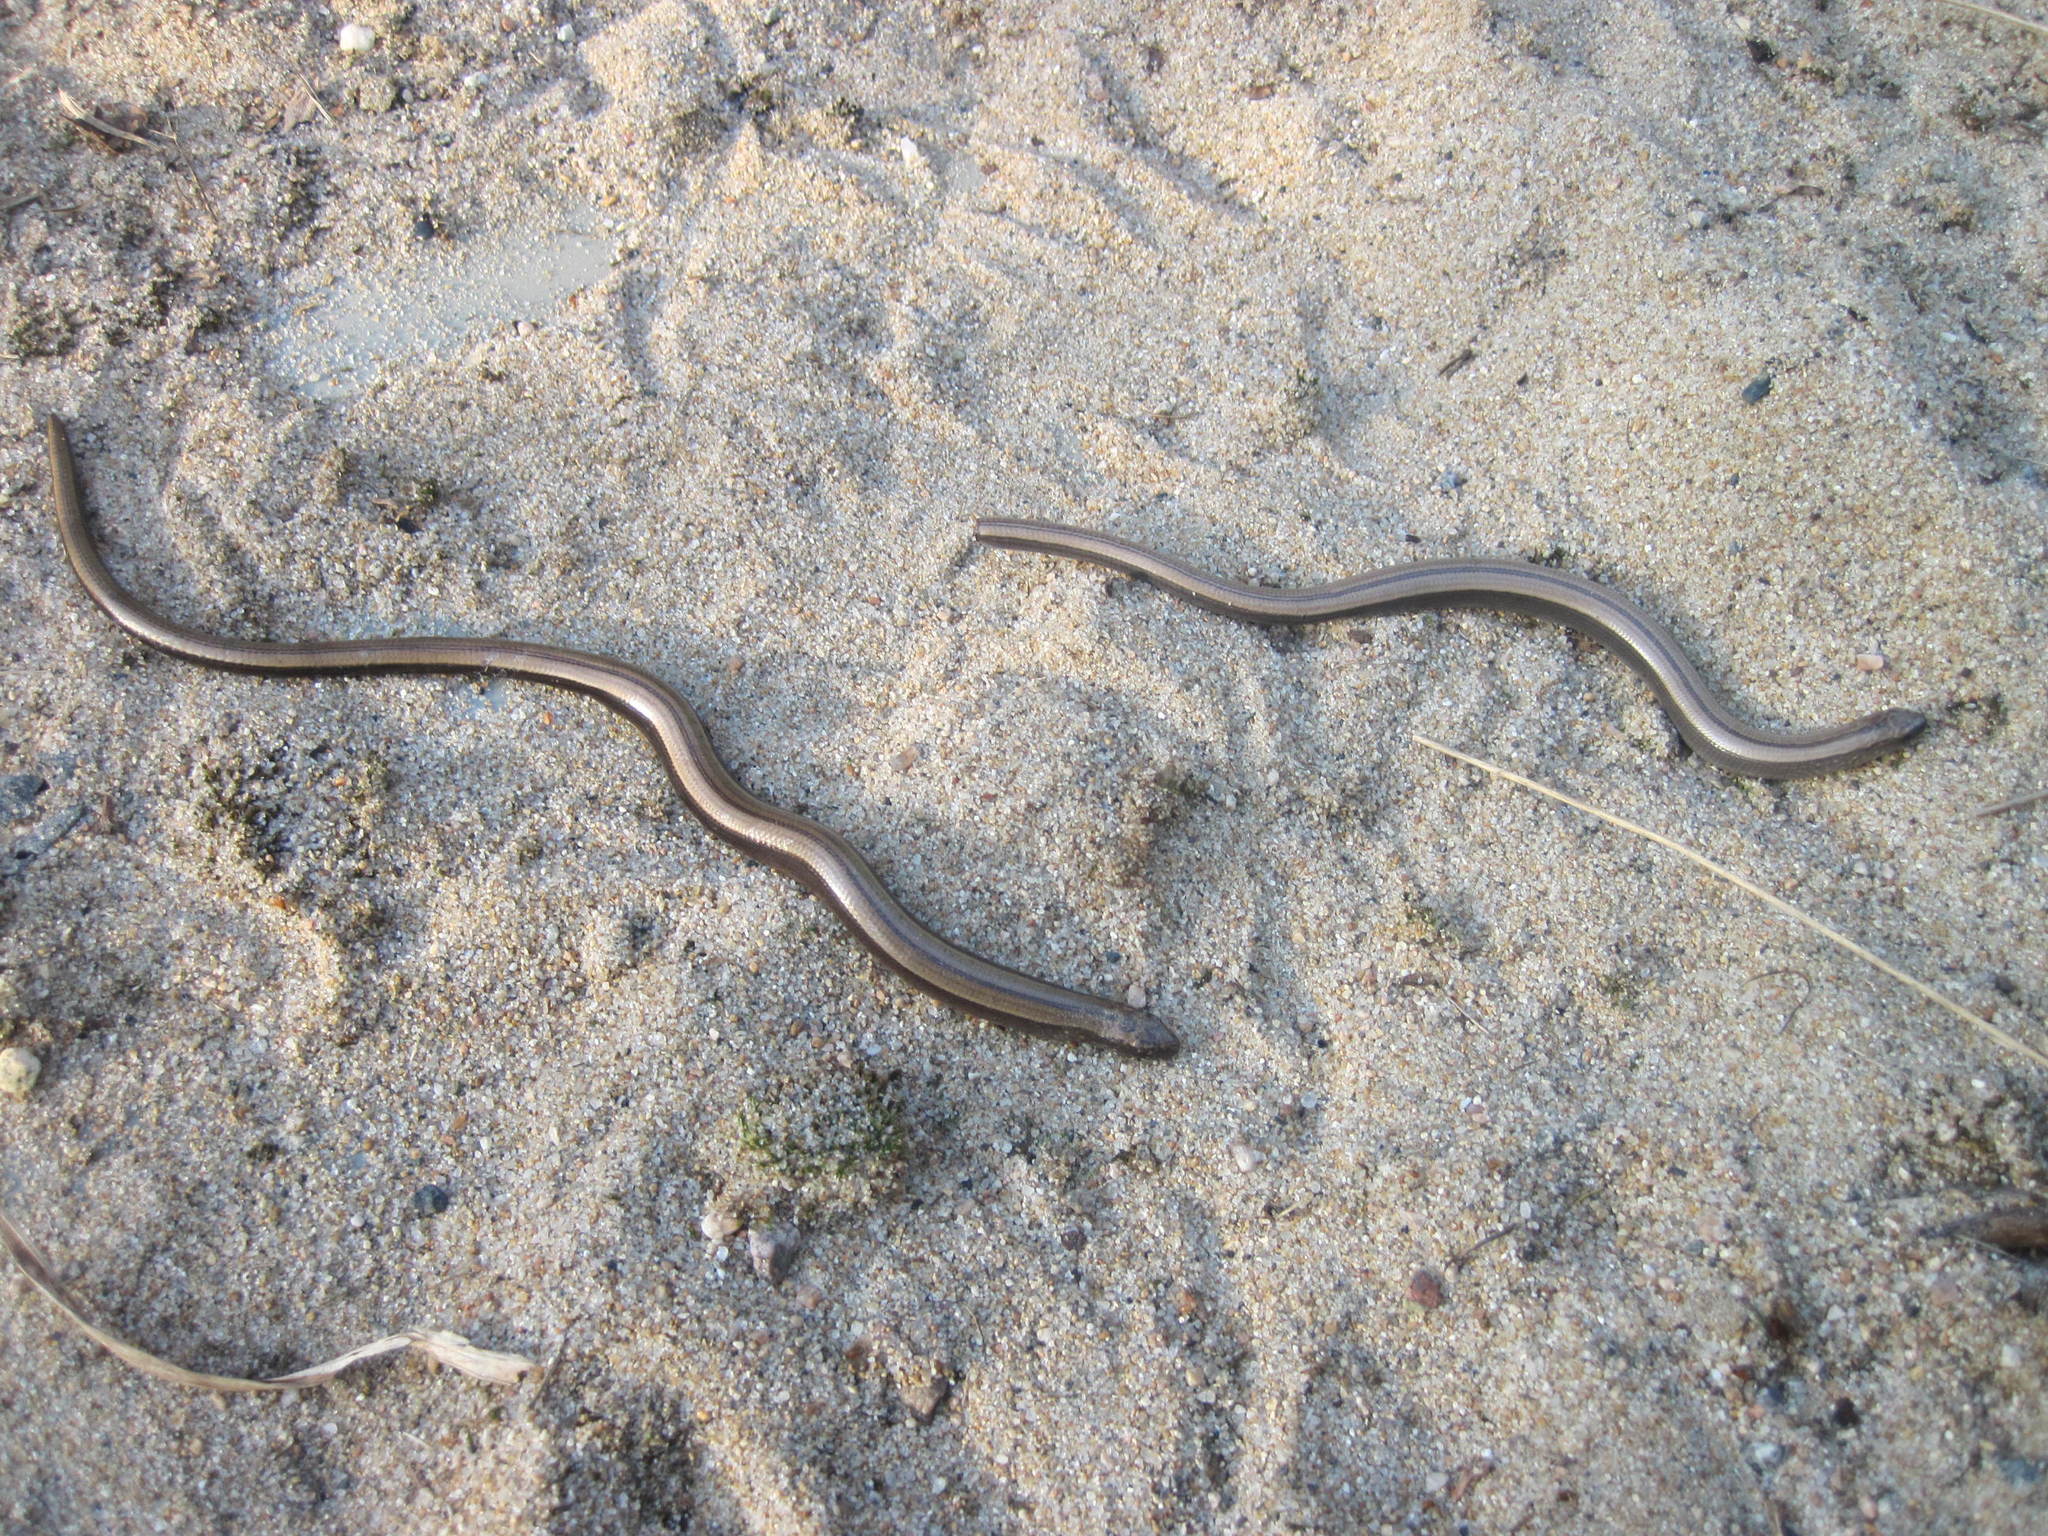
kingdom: Animalia
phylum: Chordata
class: Squamata
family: Anguidae
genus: Anguis
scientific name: Anguis colchica
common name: Slow worm
